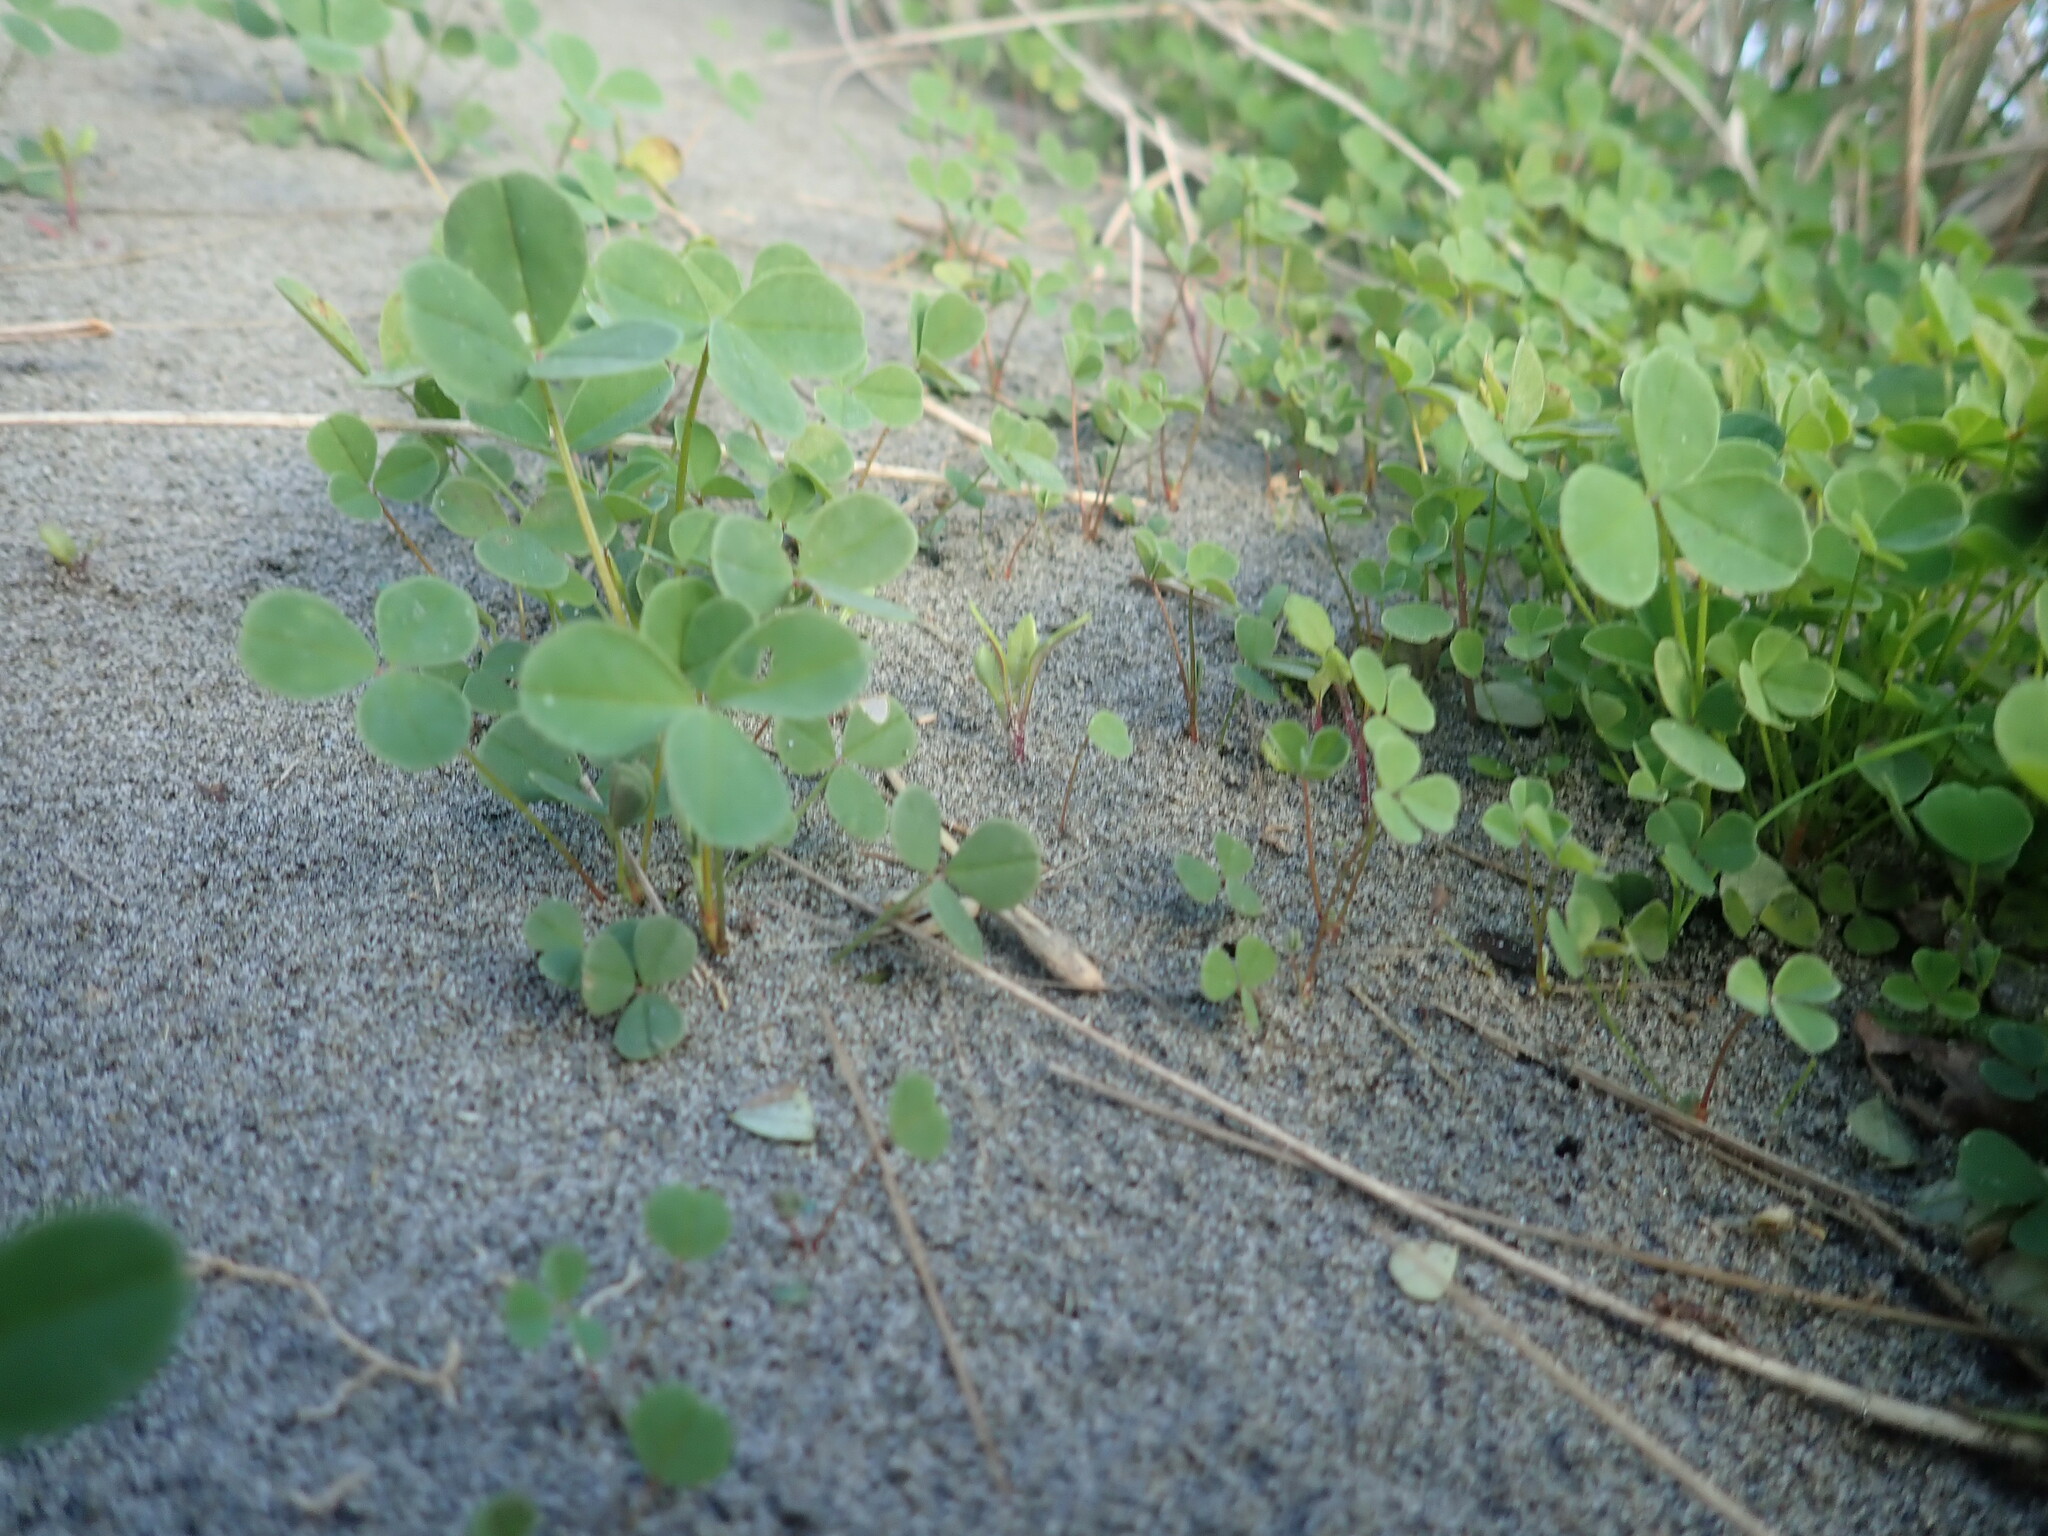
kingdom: Plantae
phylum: Tracheophyta
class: Magnoliopsida
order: Fabales
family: Fabaceae
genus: Melilotus
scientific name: Melilotus indicus
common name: Small melilot
